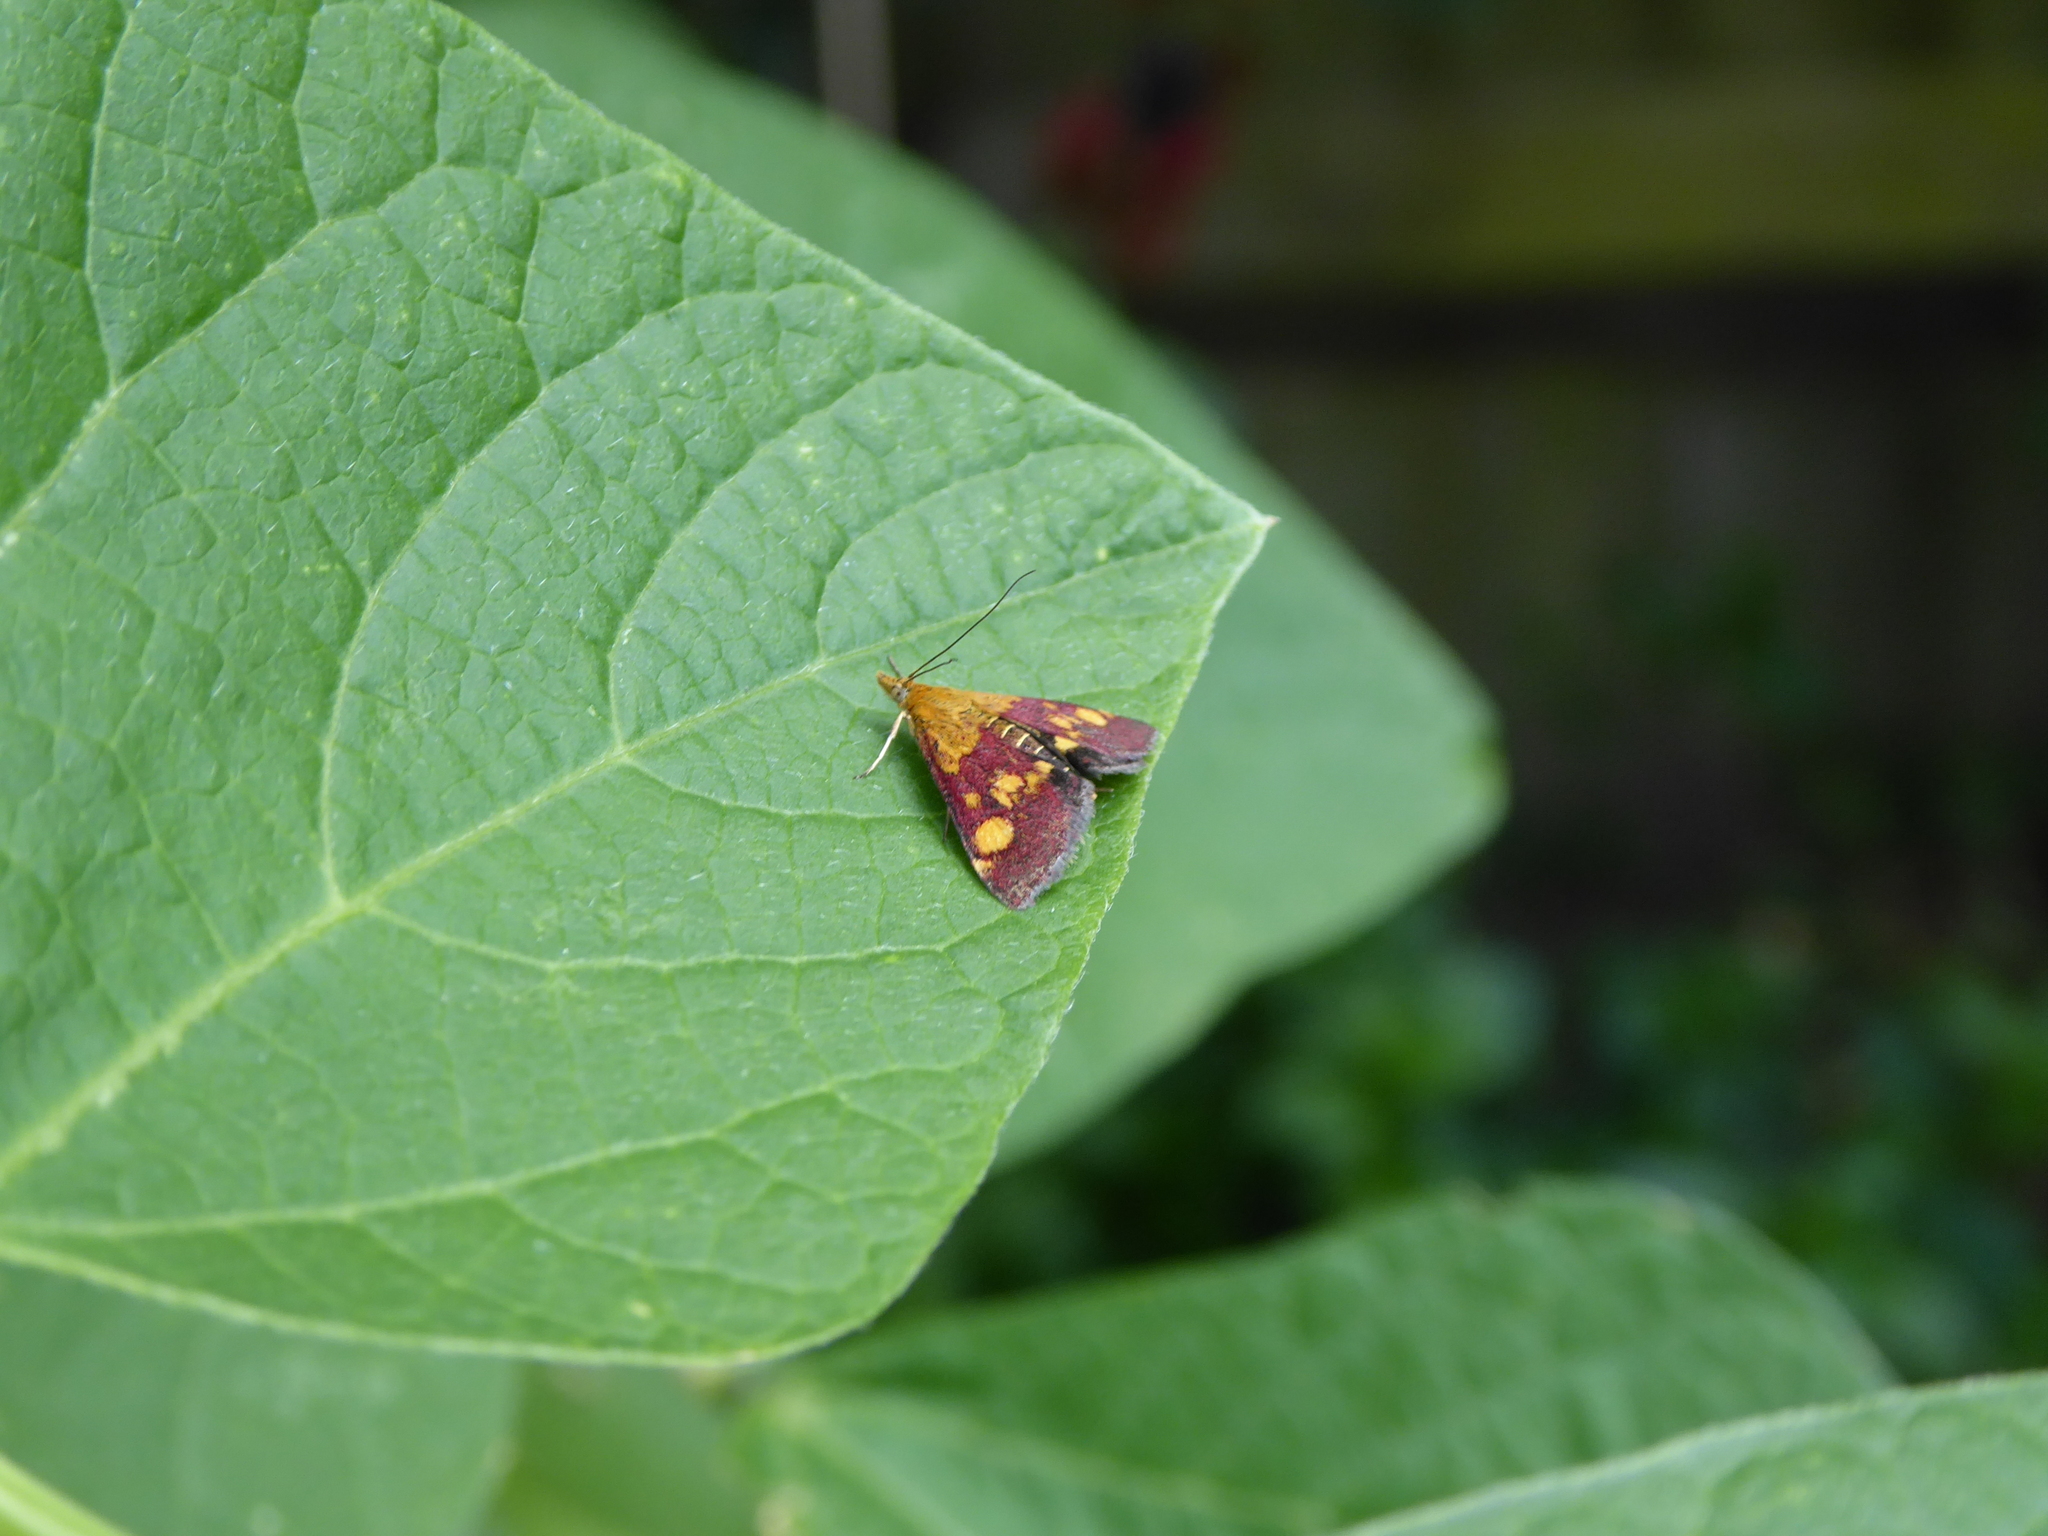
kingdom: Animalia
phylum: Arthropoda
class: Insecta
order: Lepidoptera
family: Crambidae
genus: Pyrausta
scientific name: Pyrausta aurata
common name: Small purple & gold
